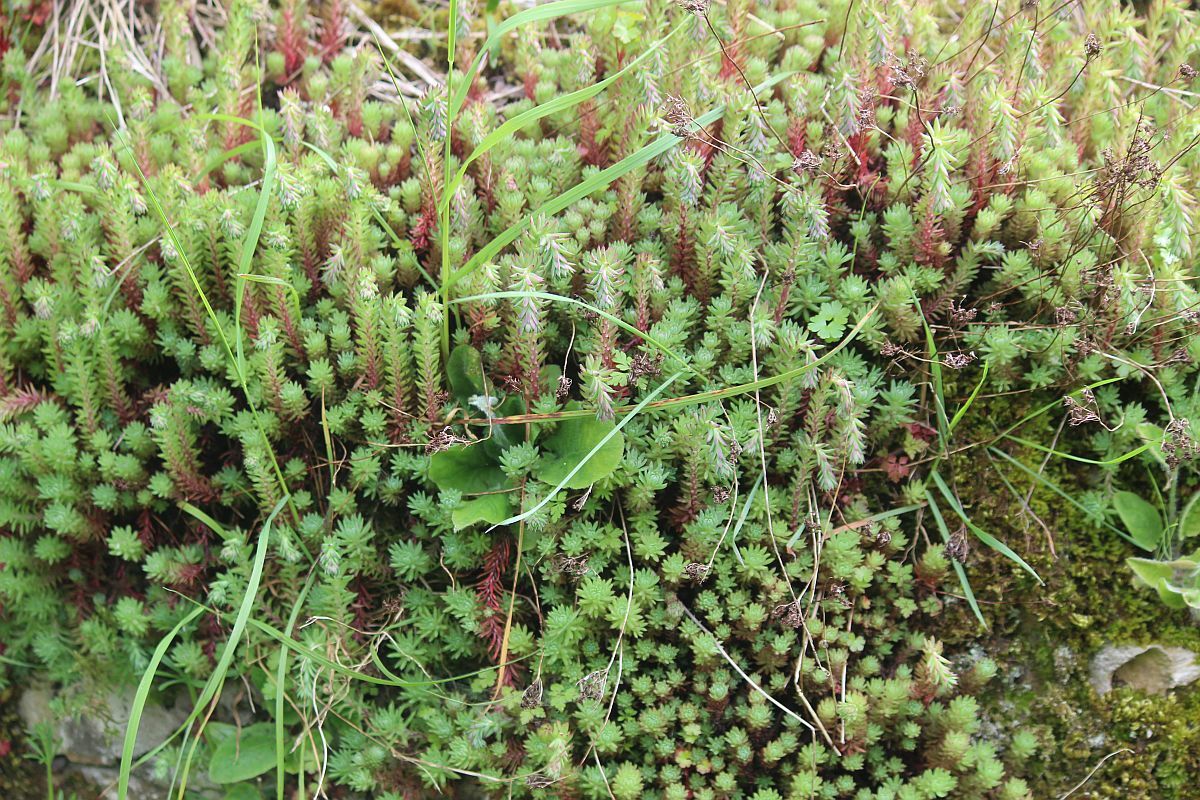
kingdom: Plantae
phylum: Tracheophyta
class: Magnoliopsida
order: Saxifragales
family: Crassulaceae
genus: Petrosedum
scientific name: Petrosedum forsterianum
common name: Forster's stonecrop
